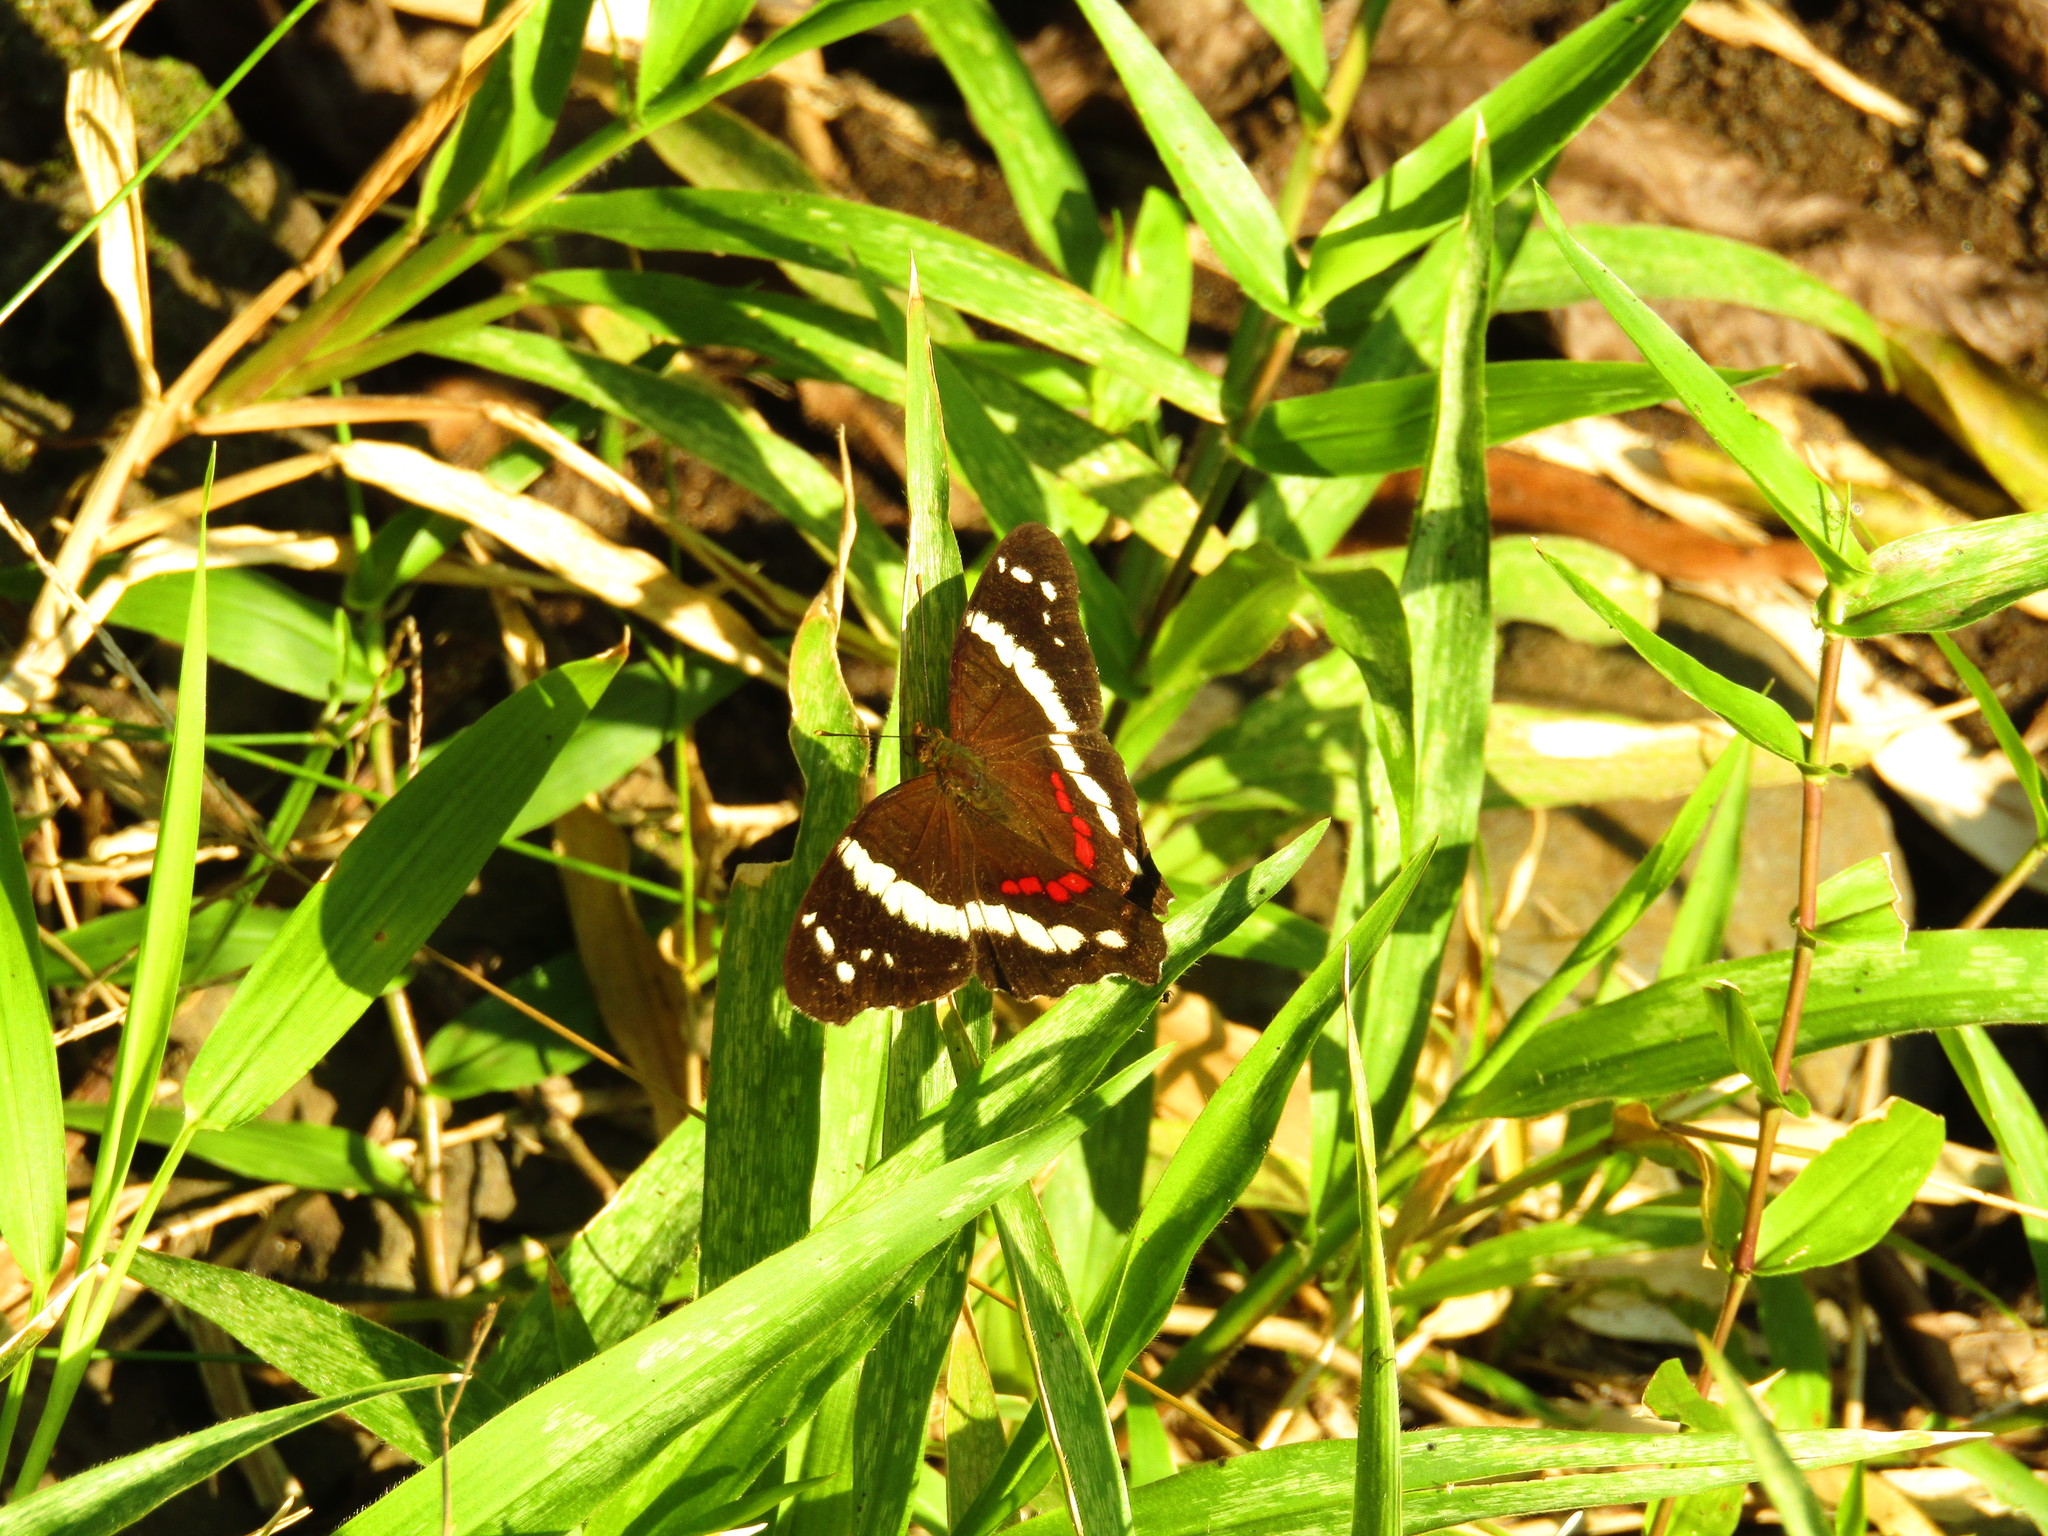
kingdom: Animalia
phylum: Arthropoda
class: Insecta
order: Lepidoptera
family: Nymphalidae
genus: Anartia
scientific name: Anartia fatima
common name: Banded peacock
